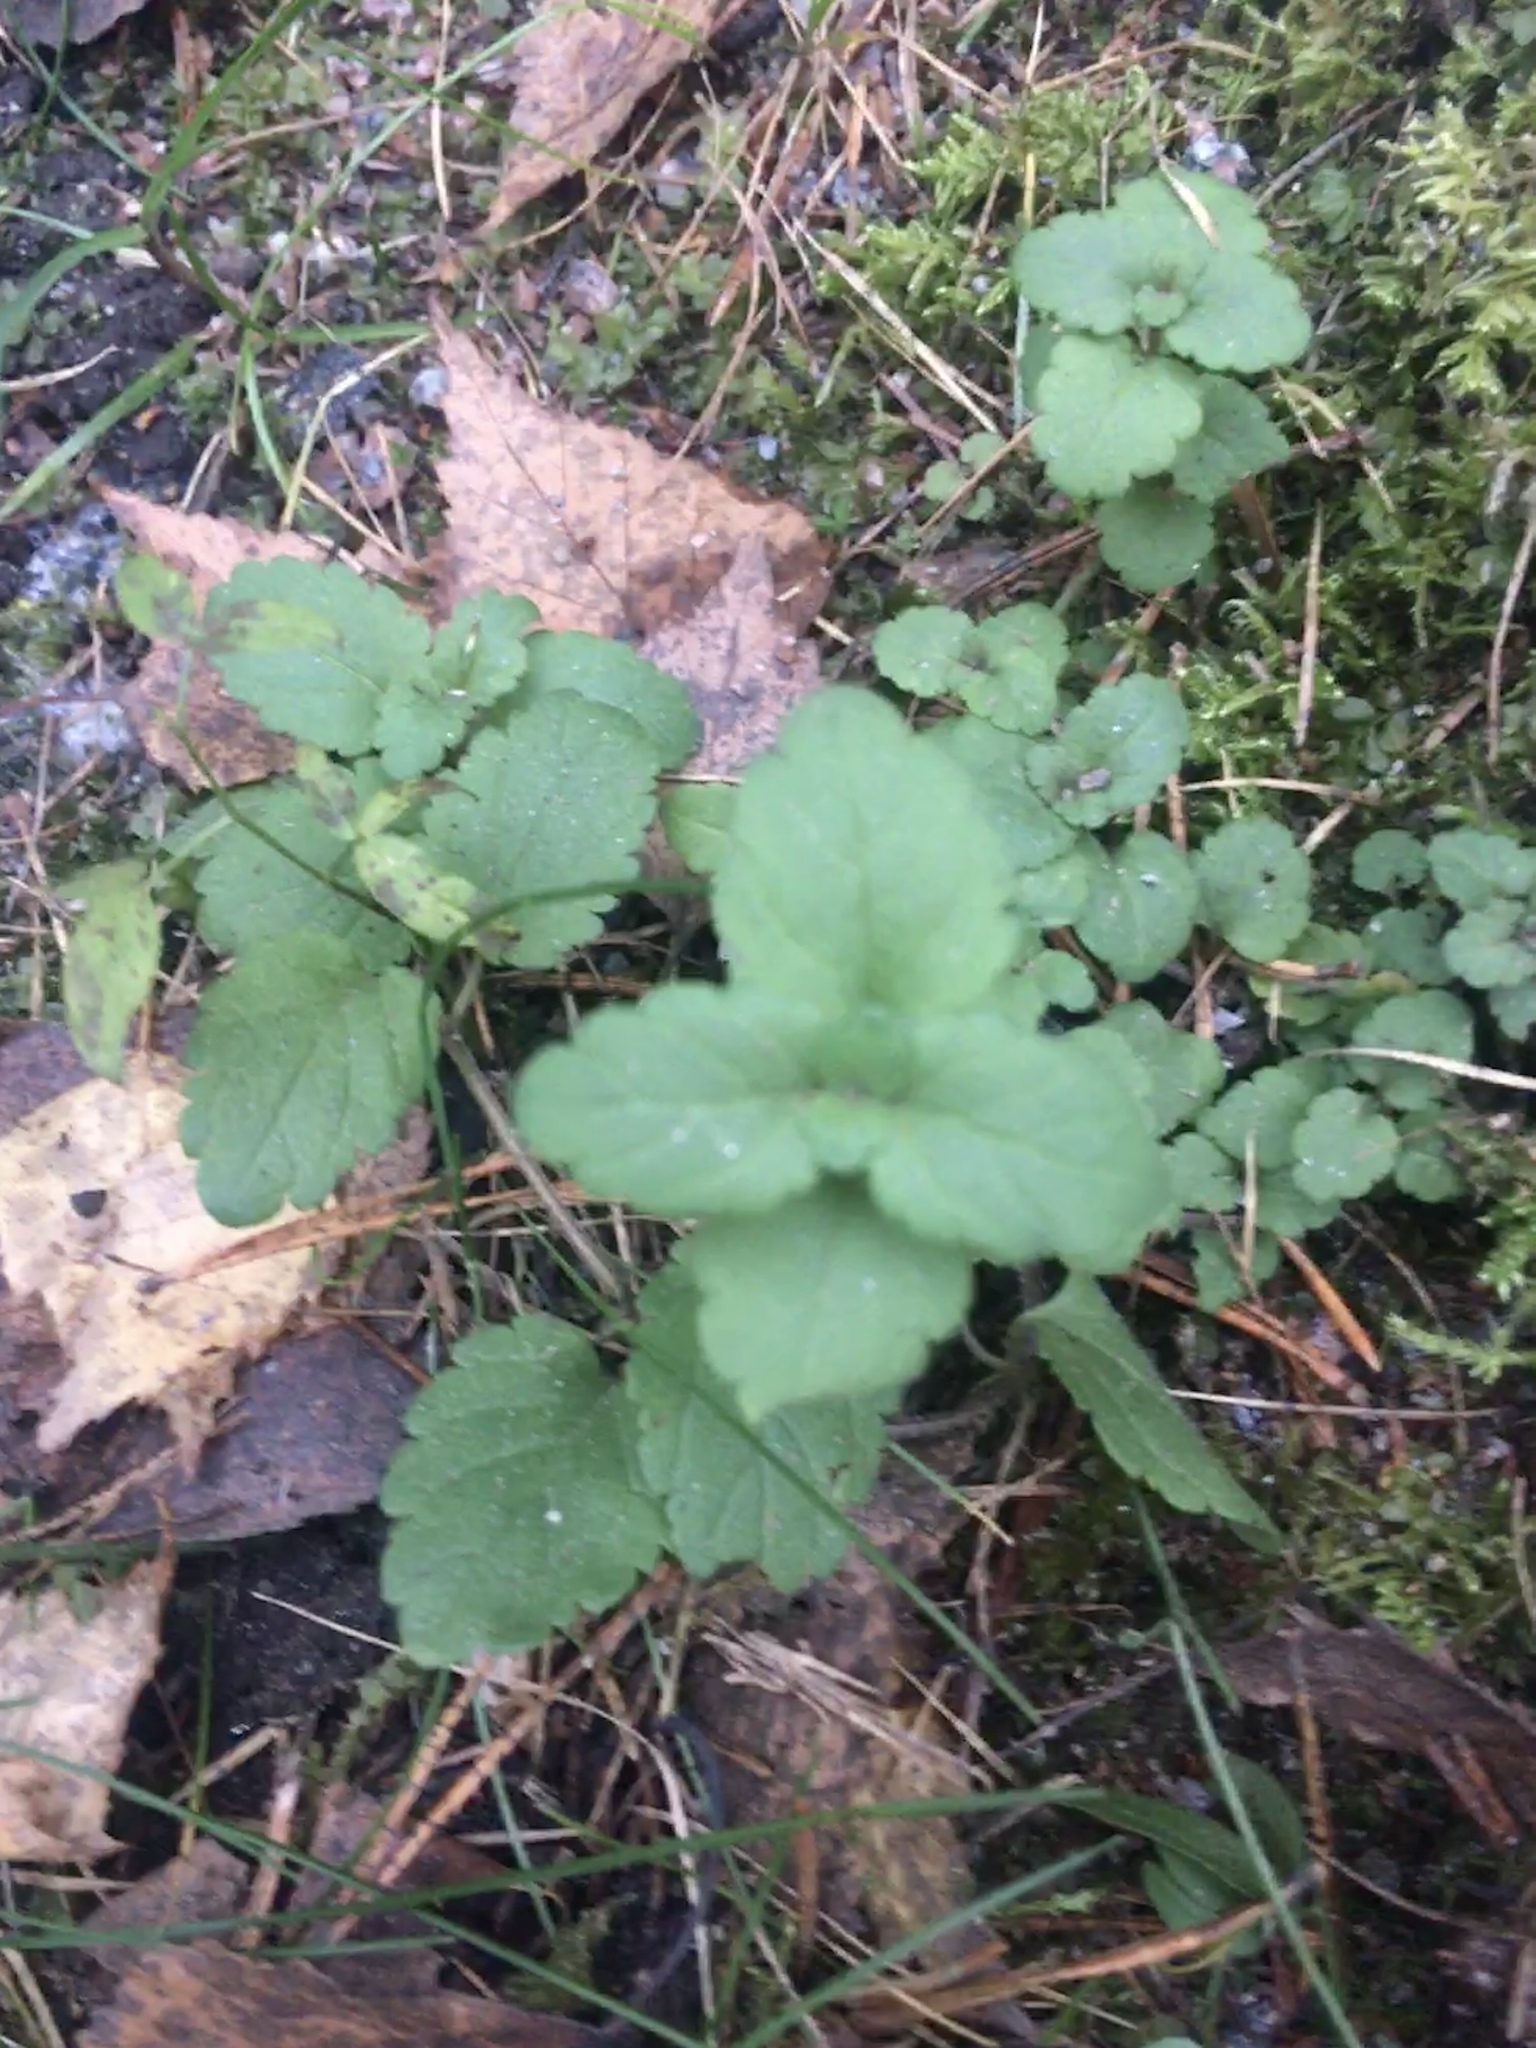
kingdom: Plantae
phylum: Tracheophyta
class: Magnoliopsida
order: Lamiales
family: Plantaginaceae
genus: Veronica
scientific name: Veronica chamaedrys
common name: Germander speedwell
